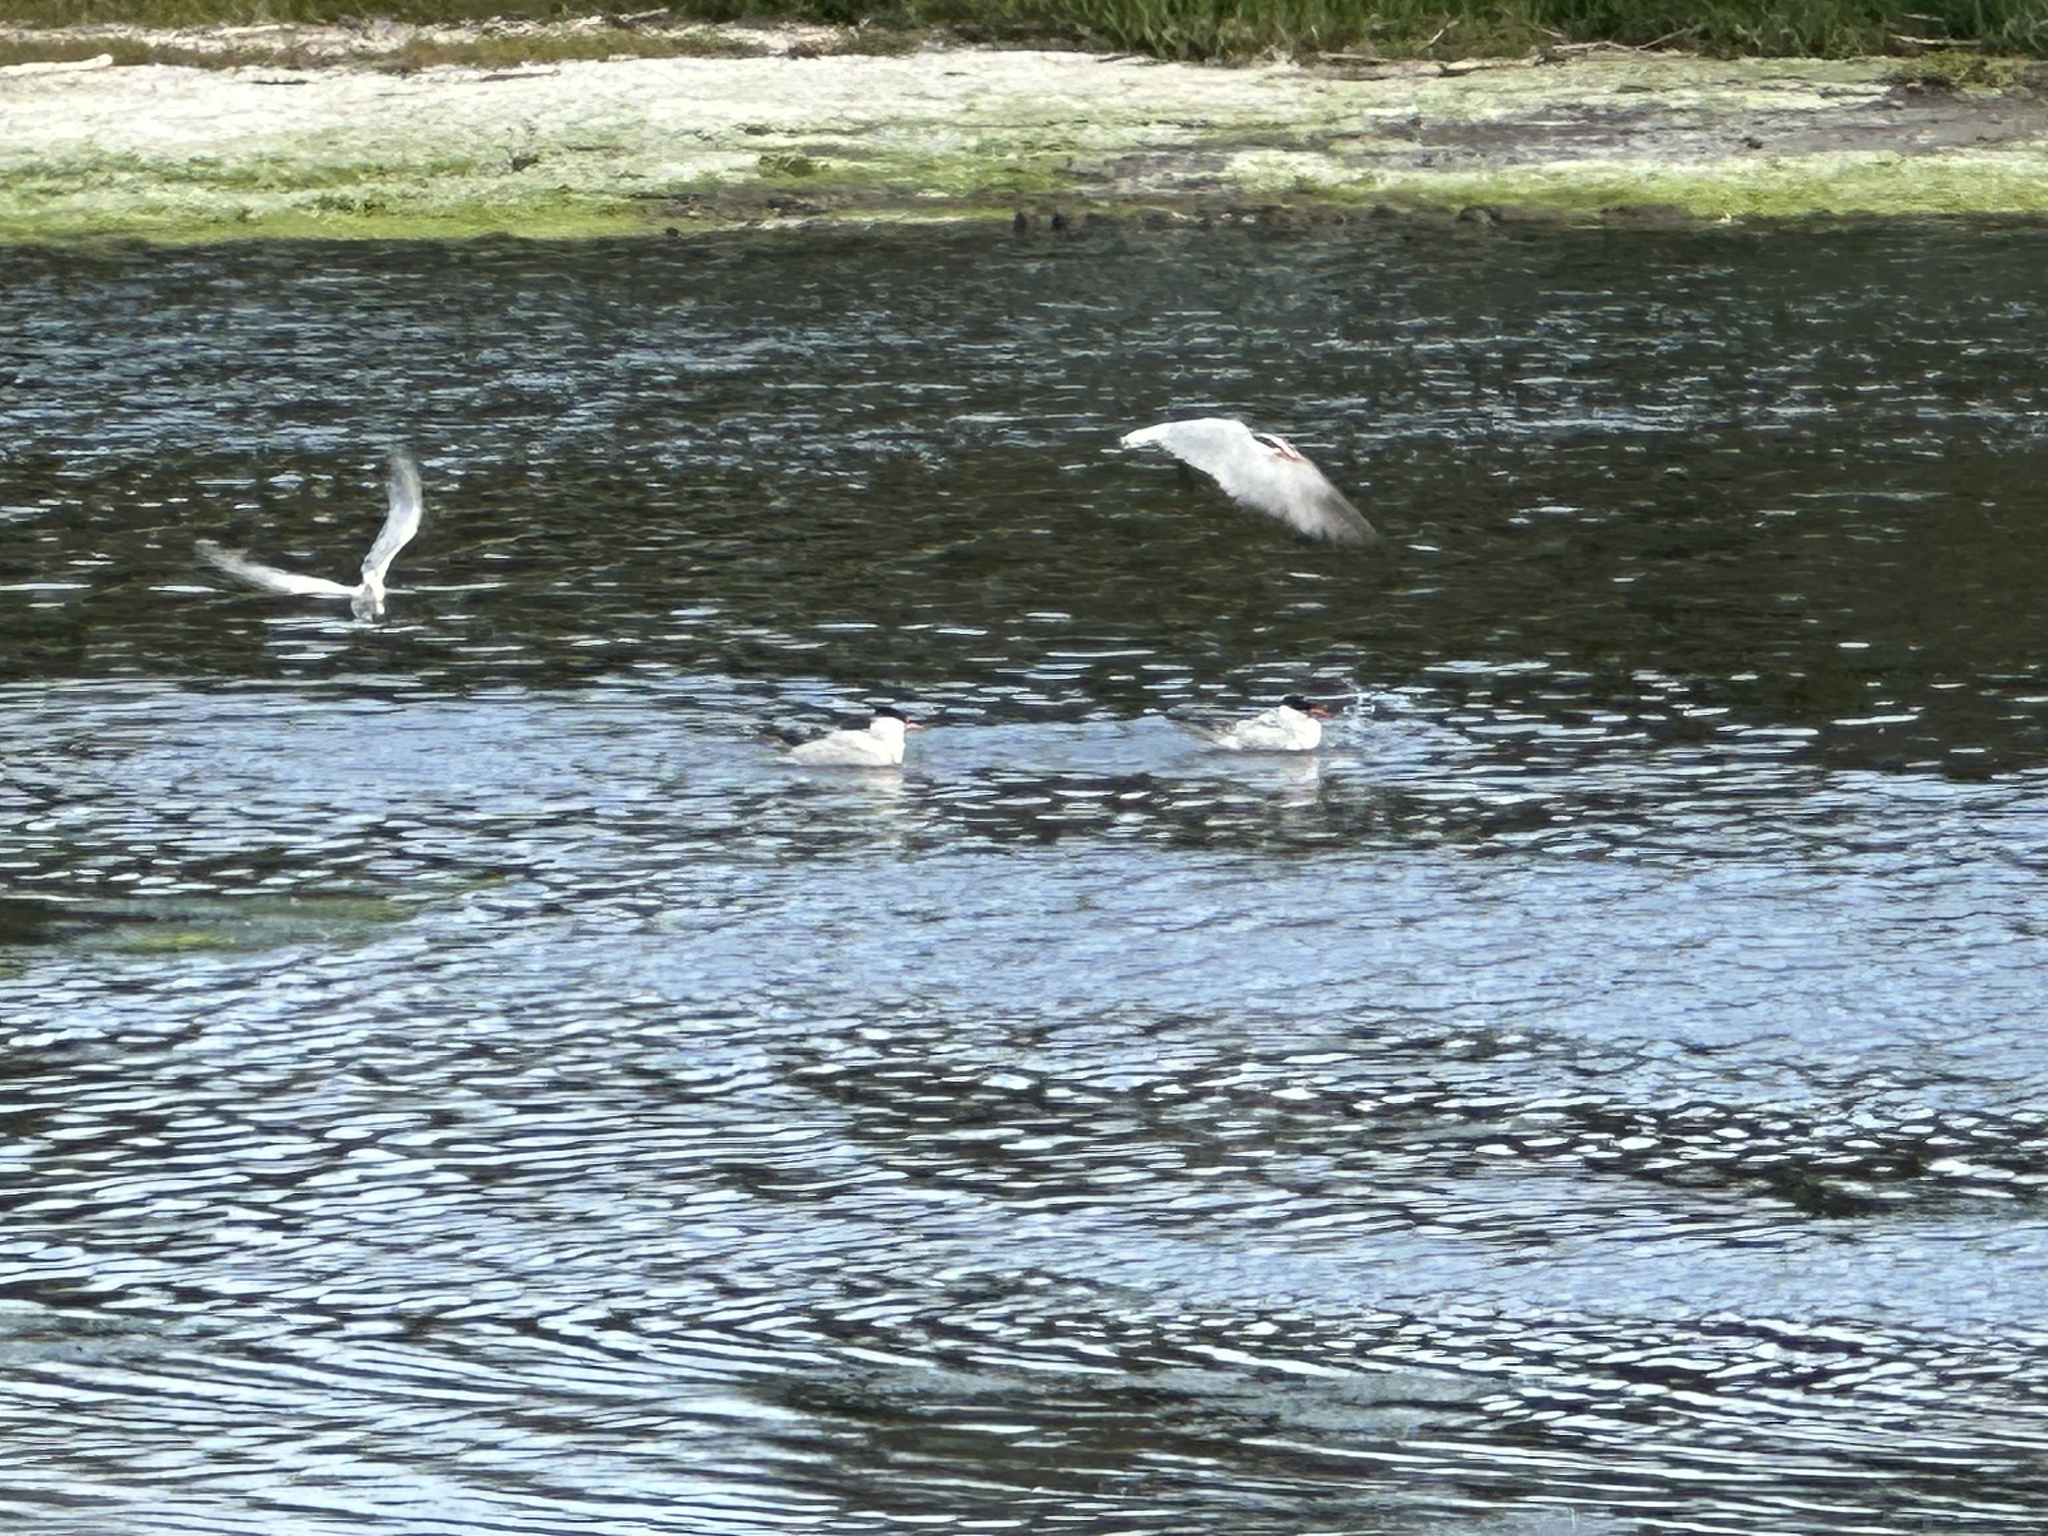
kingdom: Animalia
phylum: Chordata
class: Aves
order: Charadriiformes
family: Laridae
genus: Hydroprogne
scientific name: Hydroprogne caspia
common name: Caspian tern
